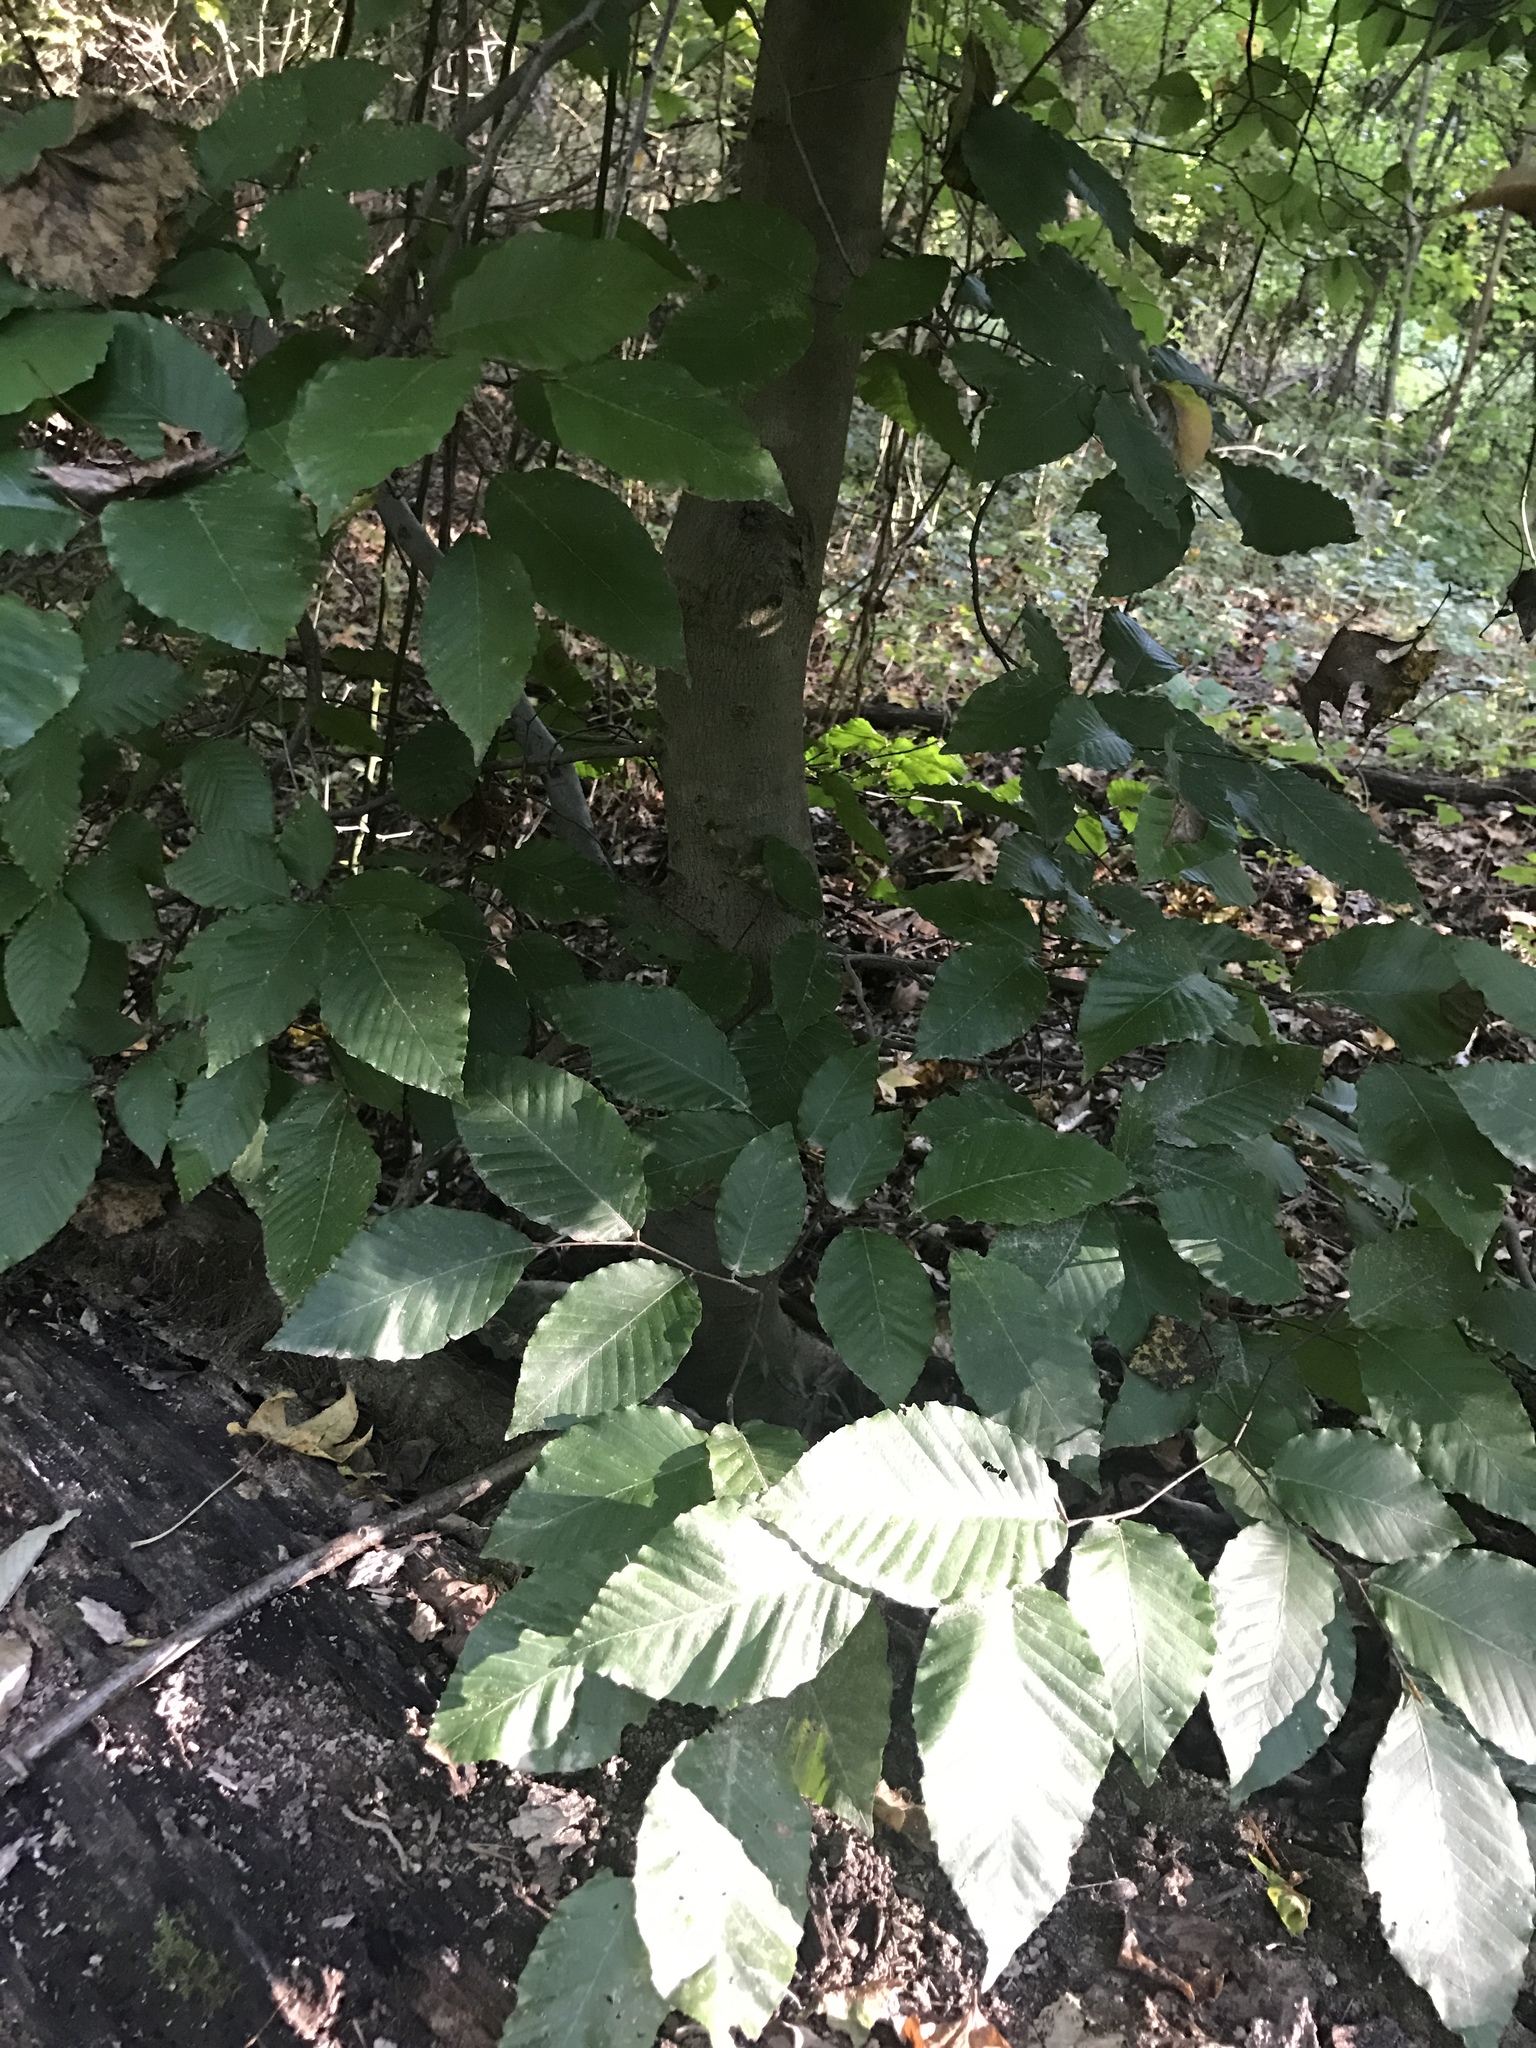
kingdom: Plantae
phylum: Tracheophyta
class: Magnoliopsida
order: Fagales
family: Fagaceae
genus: Fagus
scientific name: Fagus grandifolia
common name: American beech
